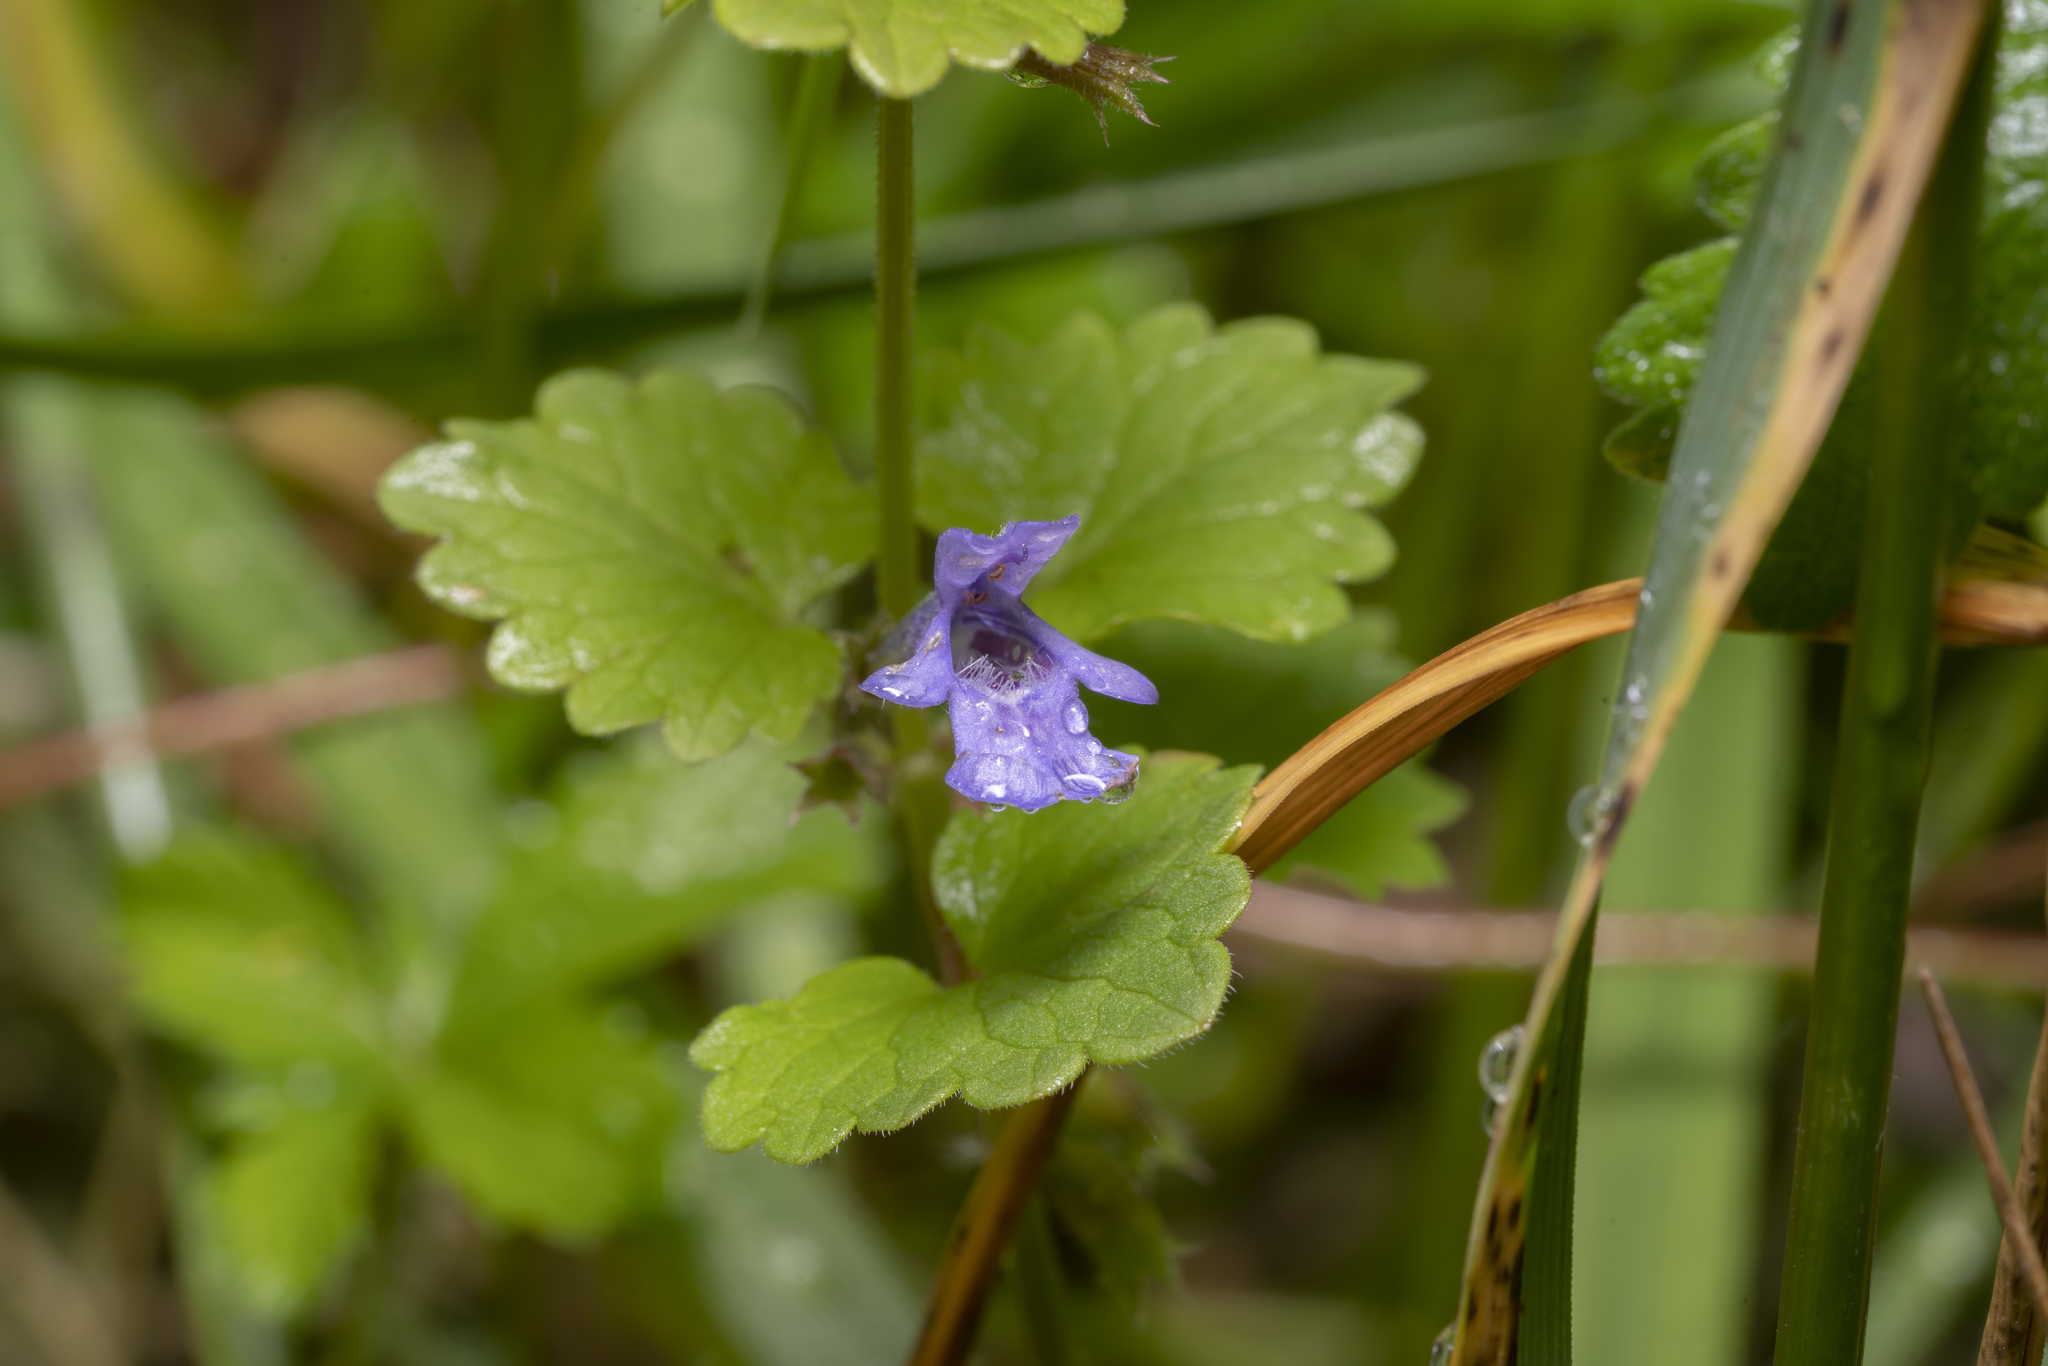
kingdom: Plantae
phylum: Tracheophyta
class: Magnoliopsida
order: Lamiales
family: Lamiaceae
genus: Glechoma
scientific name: Glechoma hederacea
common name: Ground ivy
